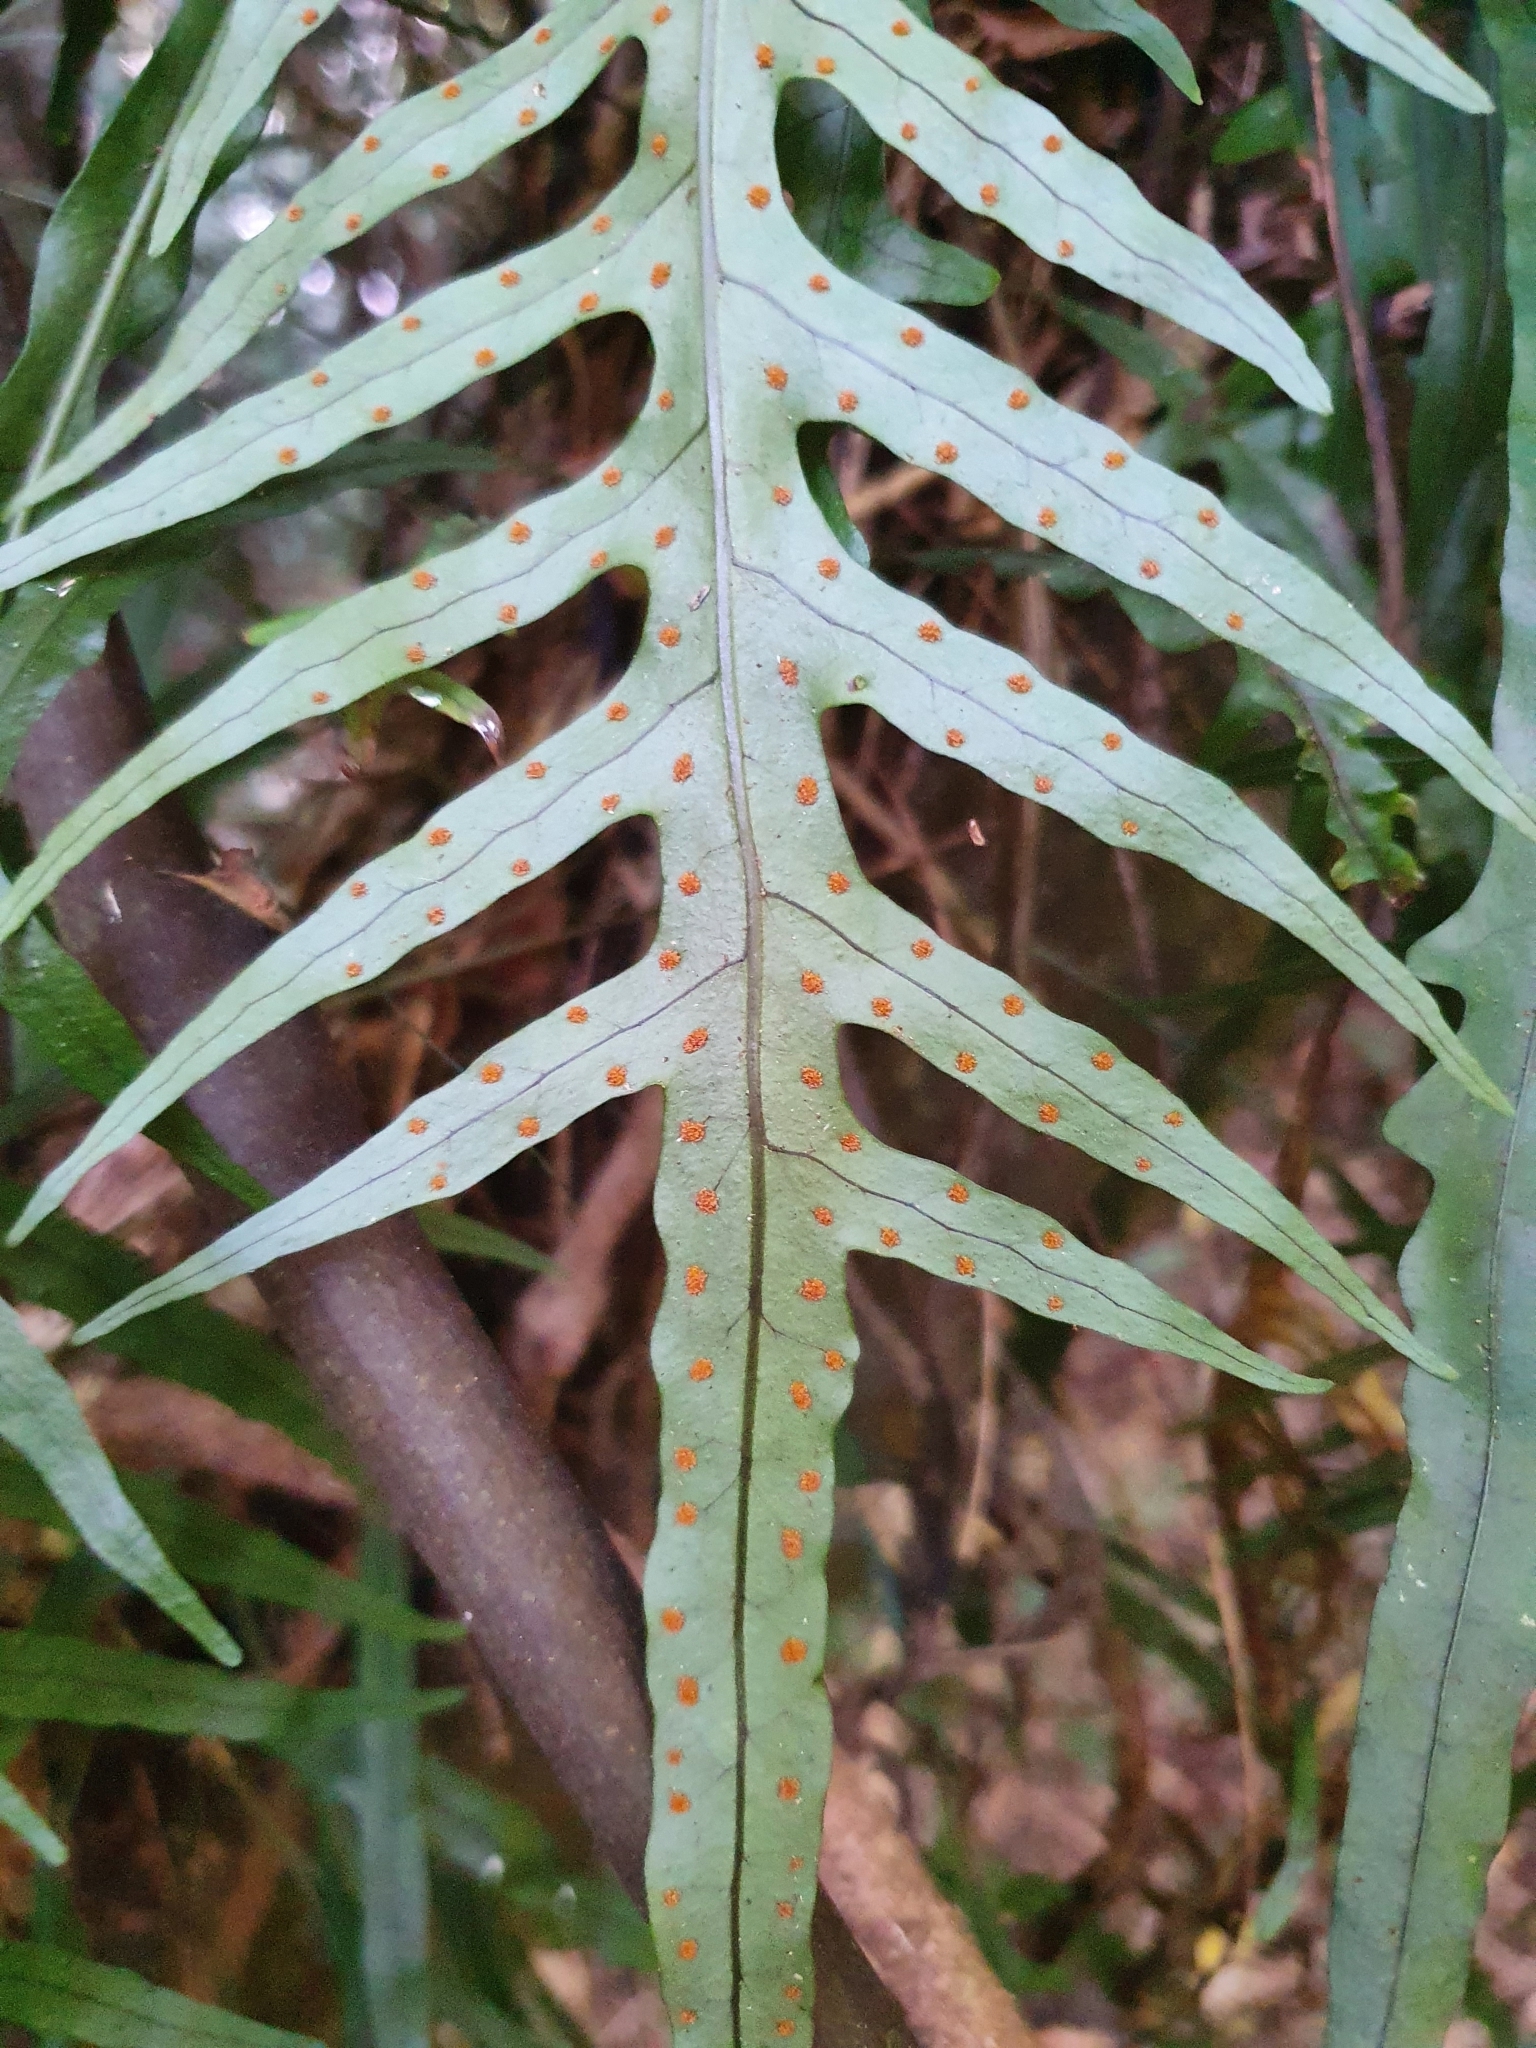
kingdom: Plantae
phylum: Tracheophyta
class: Polypodiopsida
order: Polypodiales
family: Polypodiaceae
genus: Lecanopteris
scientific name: Lecanopteris scandens
